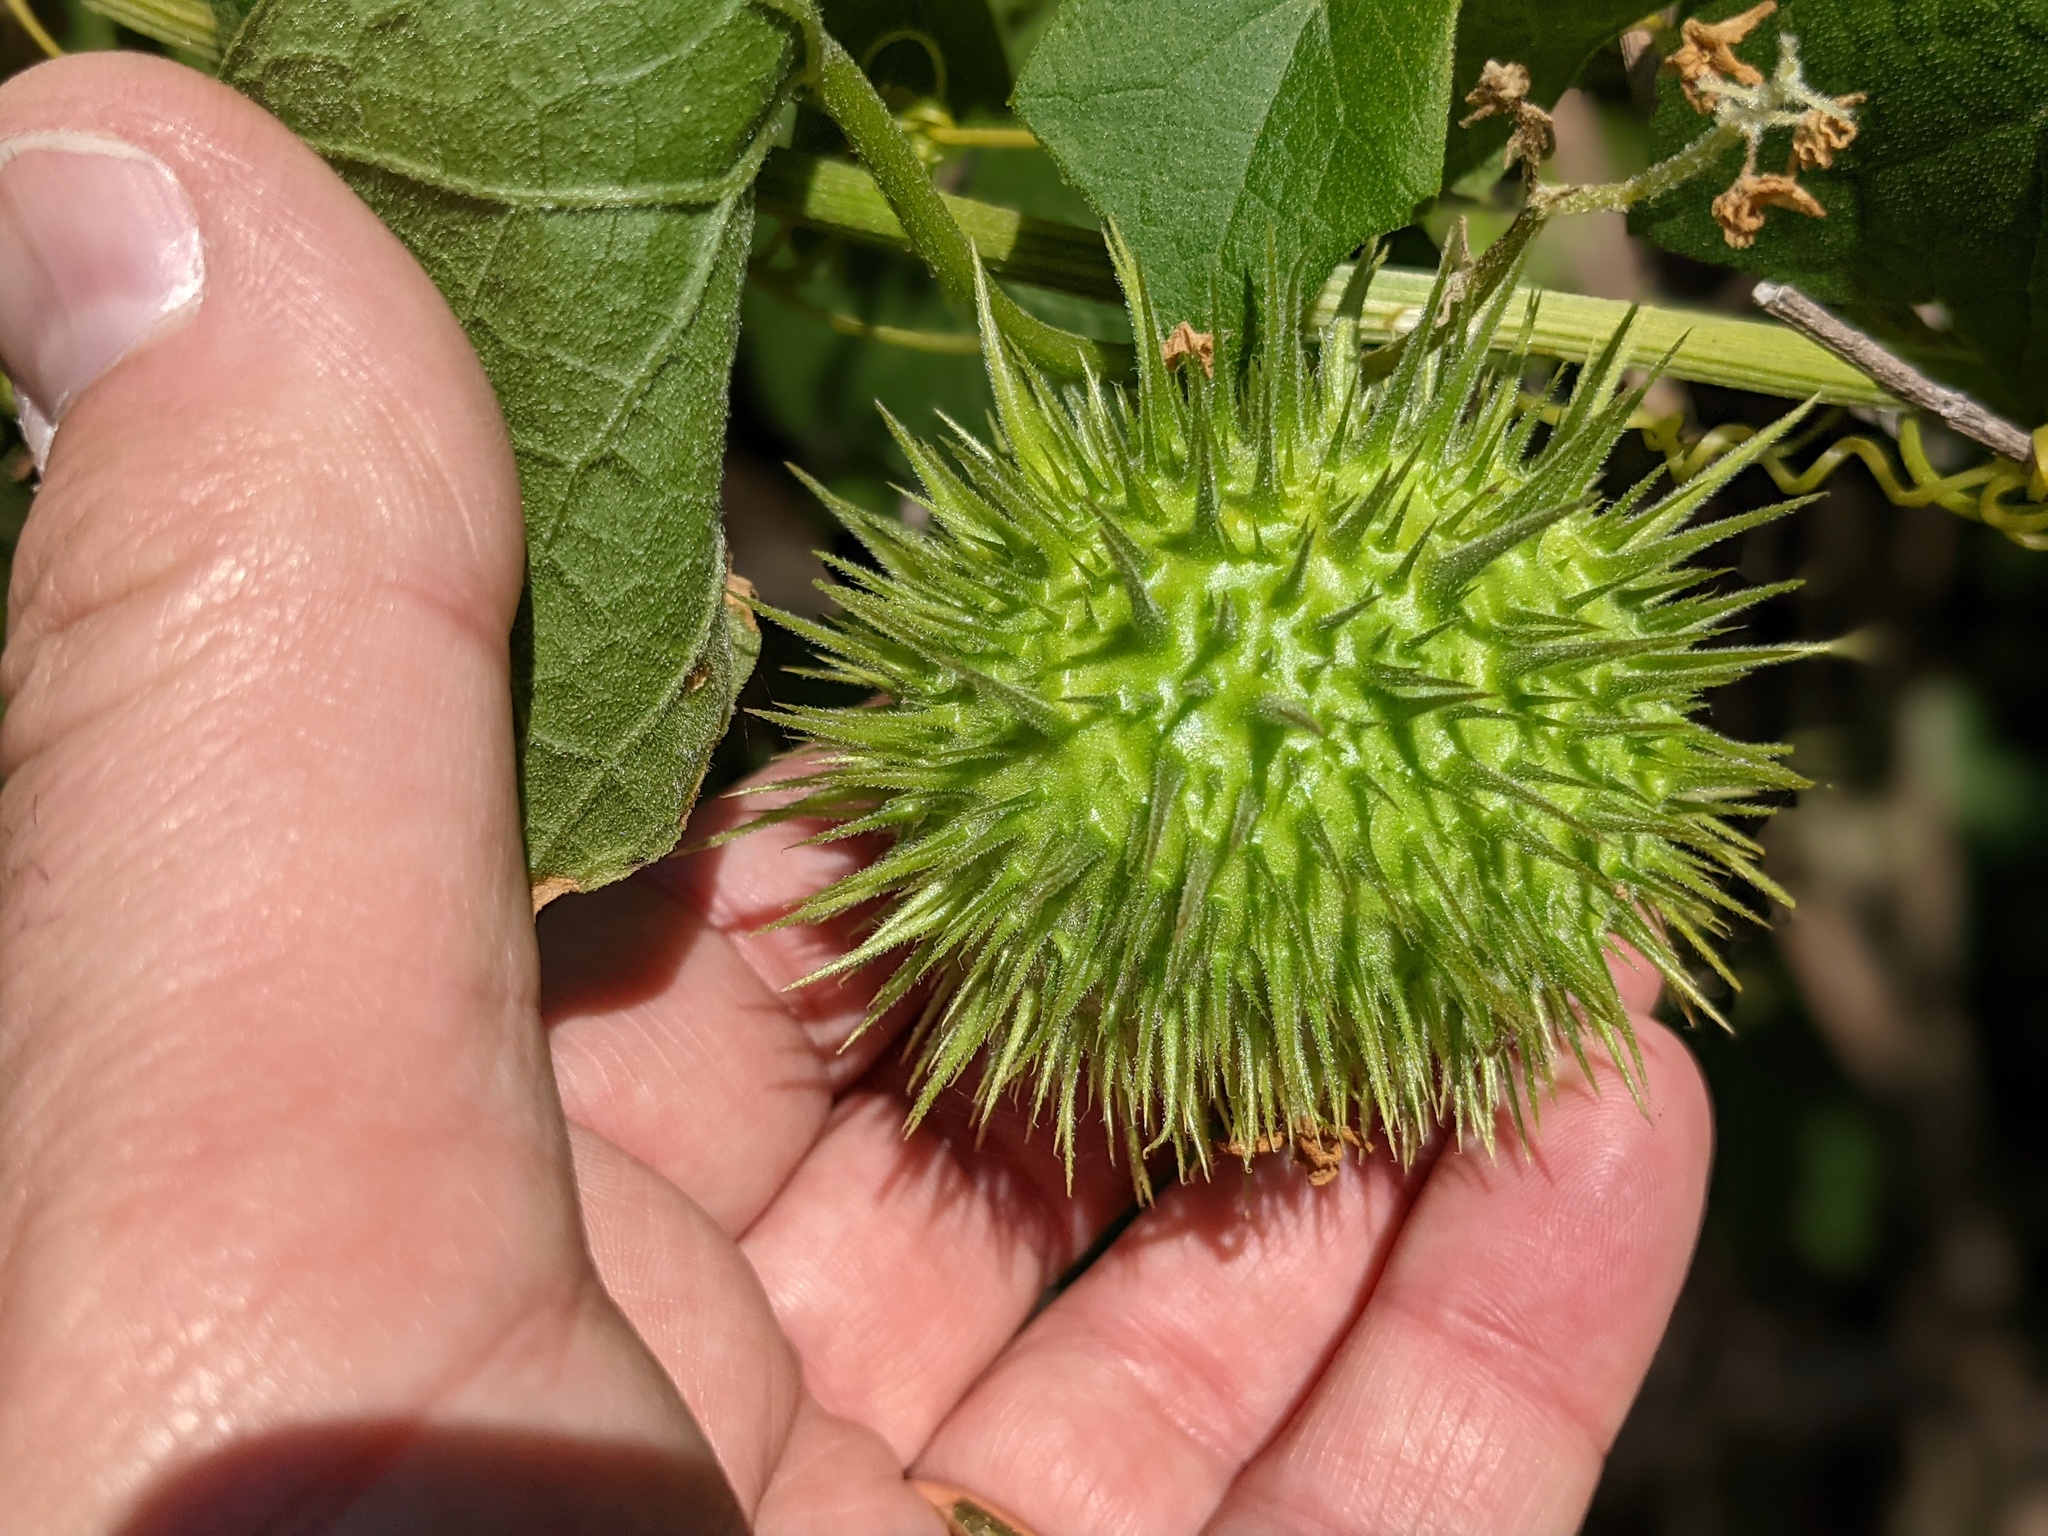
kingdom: Plantae
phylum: Tracheophyta
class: Magnoliopsida
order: Cucurbitales
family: Cucurbitaceae
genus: Marah
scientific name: Marah fabacea
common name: California manroot
